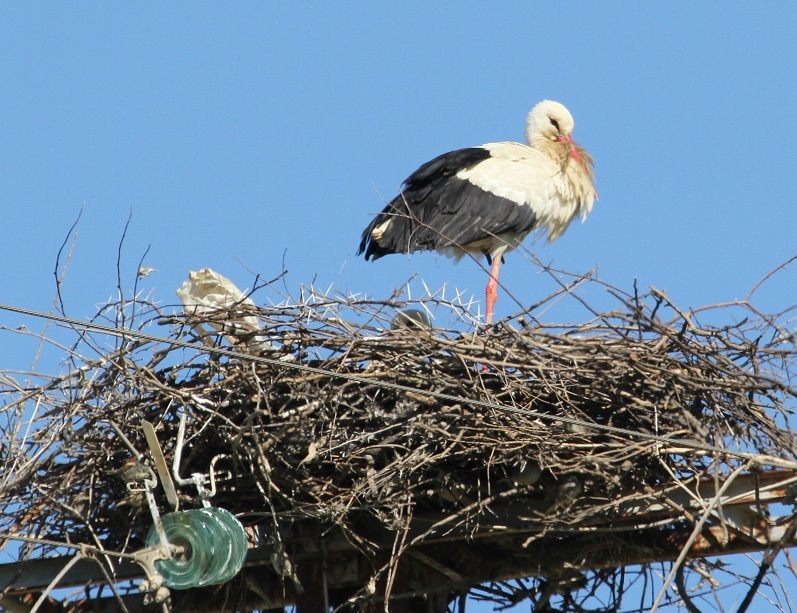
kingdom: Animalia
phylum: Chordata
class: Aves
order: Ciconiiformes
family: Ciconiidae
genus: Ciconia
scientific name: Ciconia ciconia
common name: White stork
